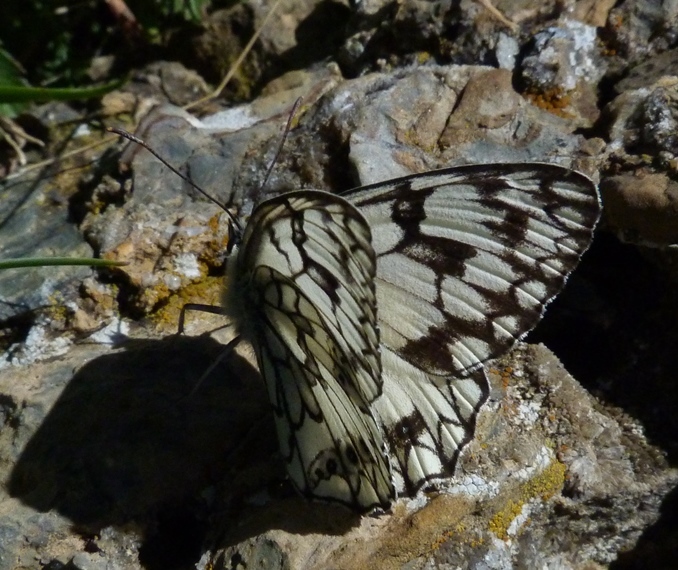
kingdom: Animalia
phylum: Arthropoda
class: Insecta
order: Lepidoptera
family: Nymphalidae
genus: Melanargia
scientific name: Melanargia japygia
